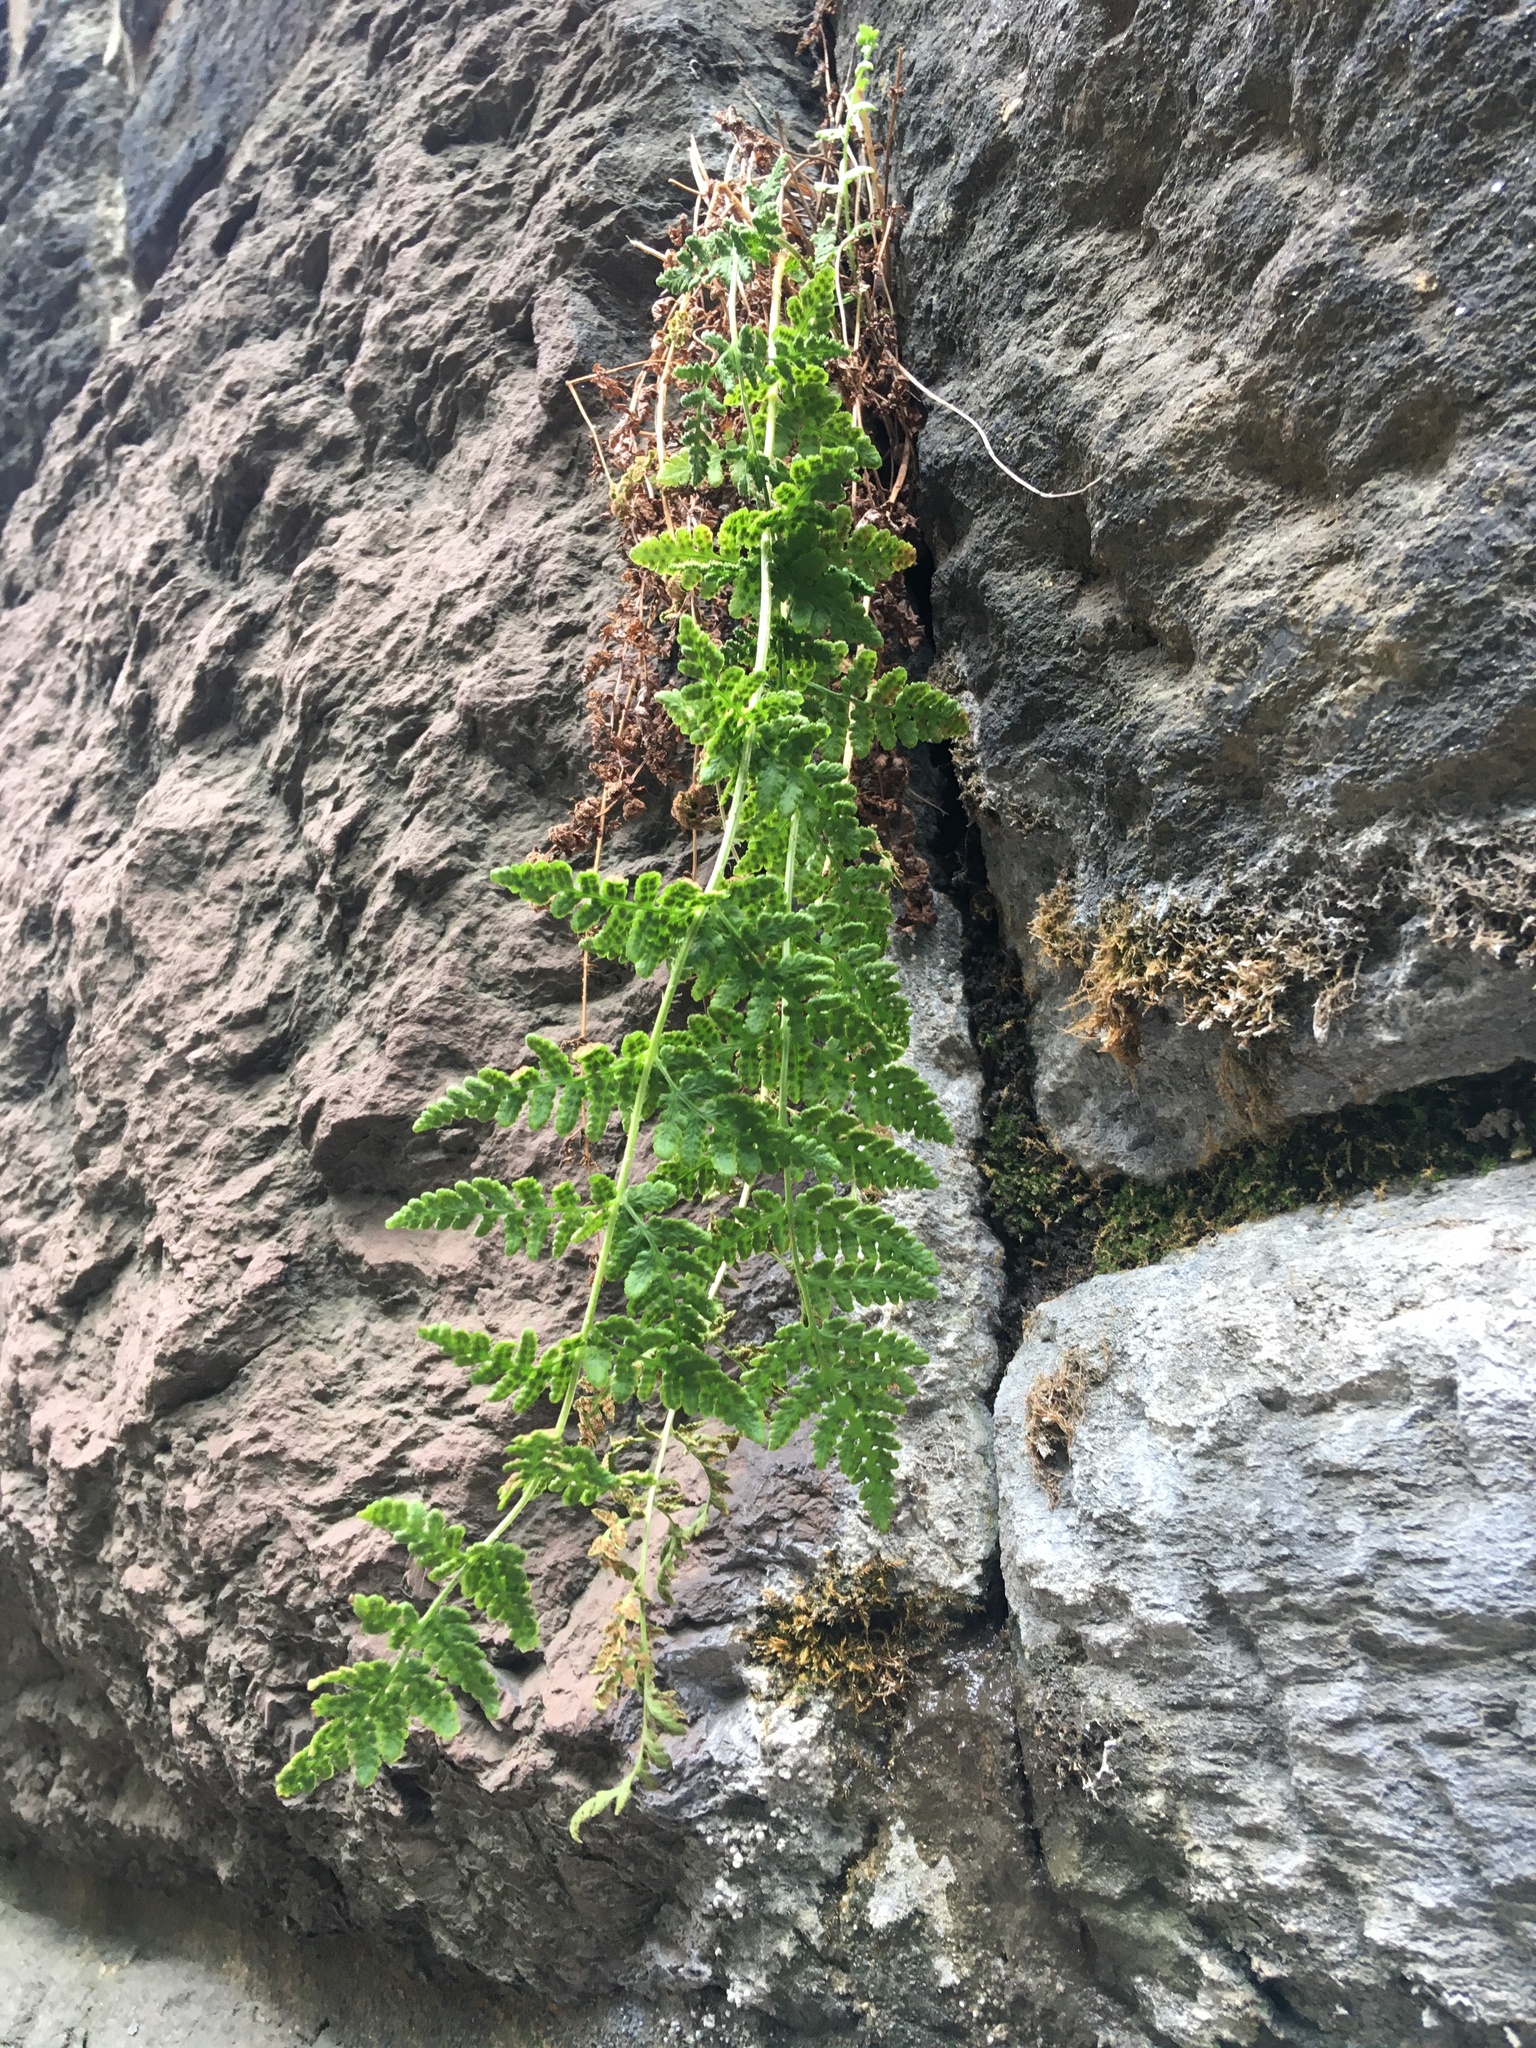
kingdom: Plantae
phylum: Tracheophyta
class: Polypodiopsida
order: Polypodiales
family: Woodsiaceae
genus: Physematium
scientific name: Physematium obtusum
